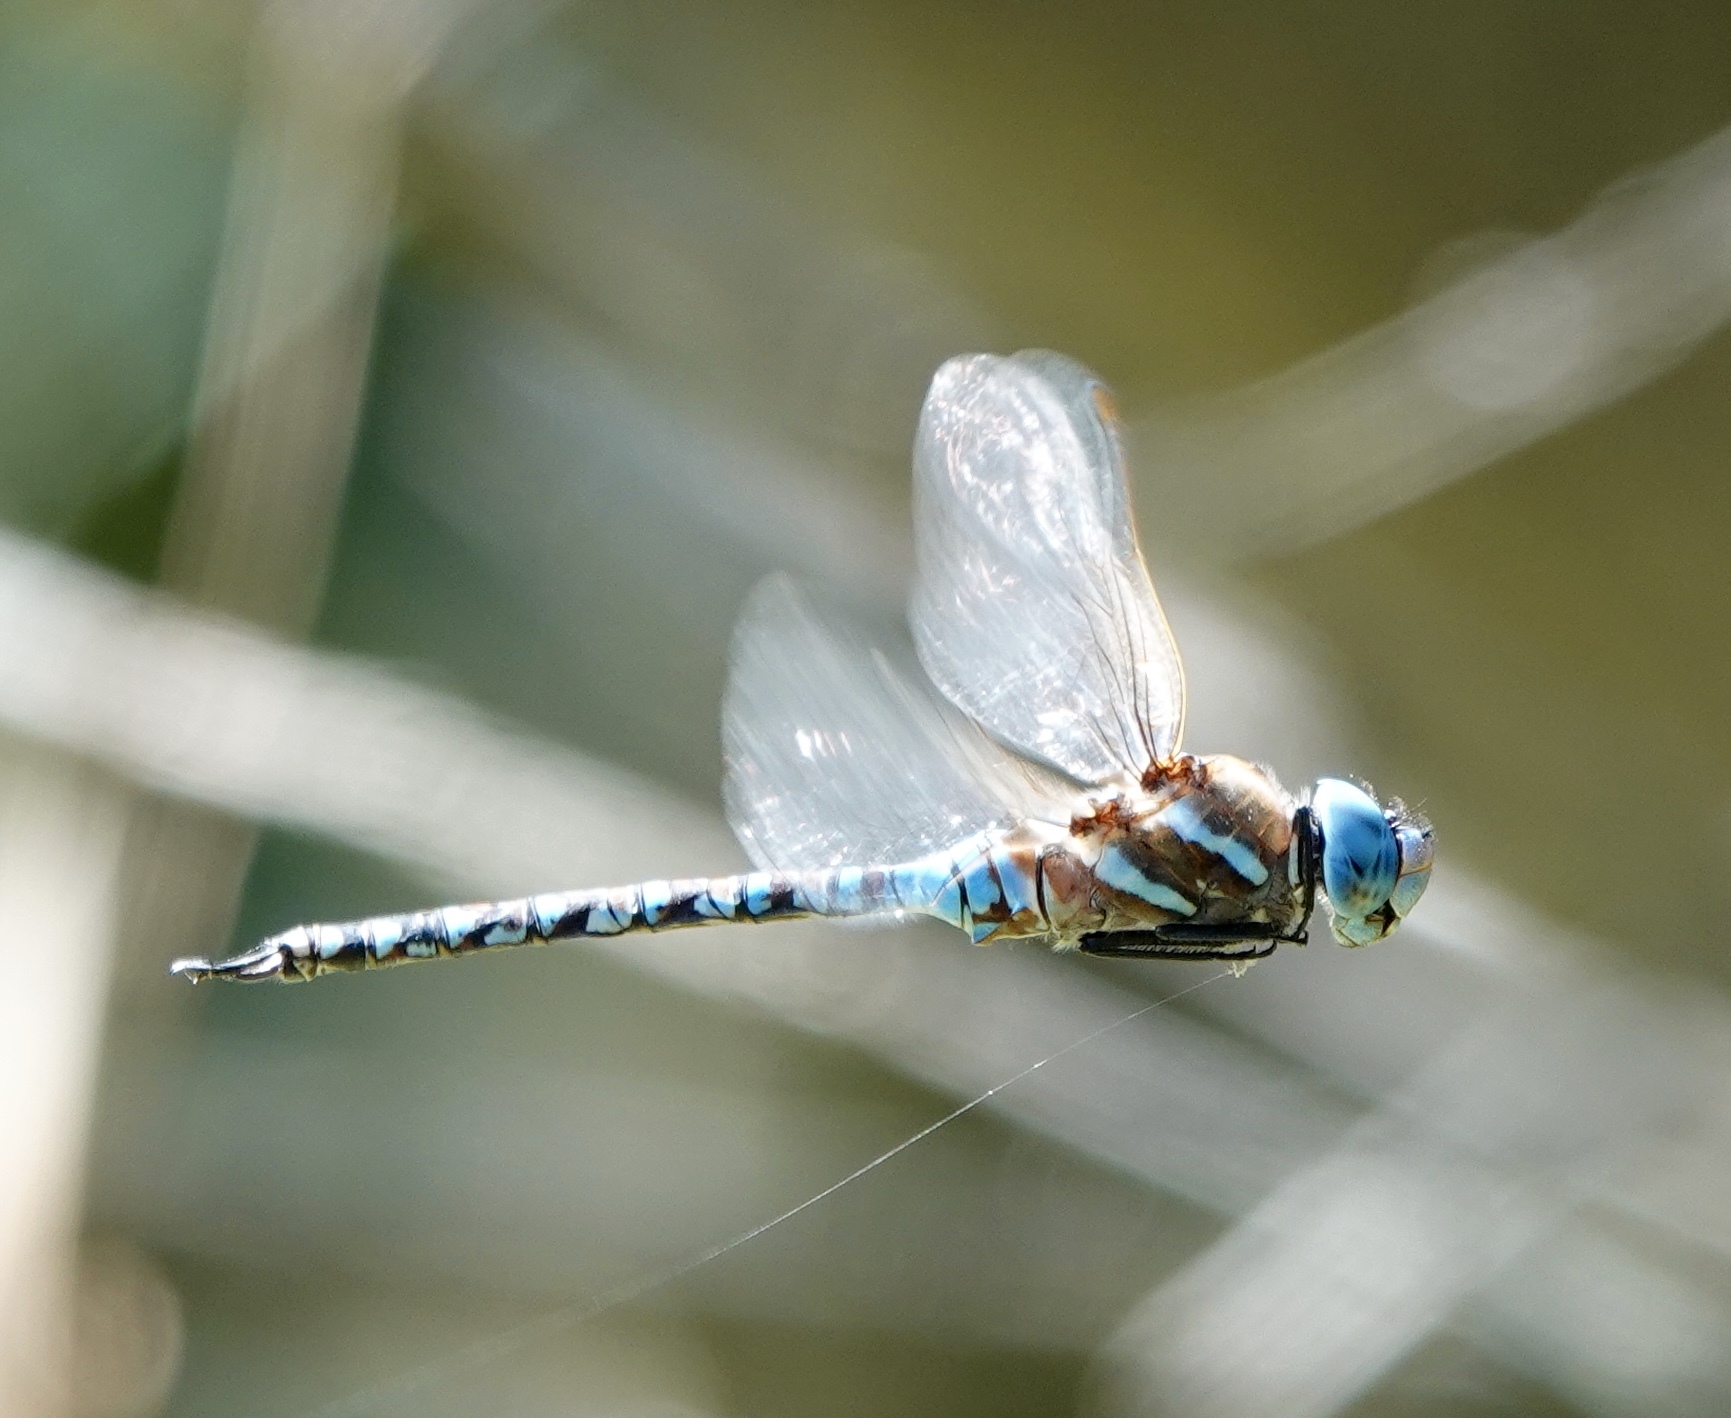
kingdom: Animalia
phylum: Arthropoda
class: Insecta
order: Odonata
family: Aeshnidae
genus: Rhionaeschna
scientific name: Rhionaeschna multicolor
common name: Blue-eyed darner
